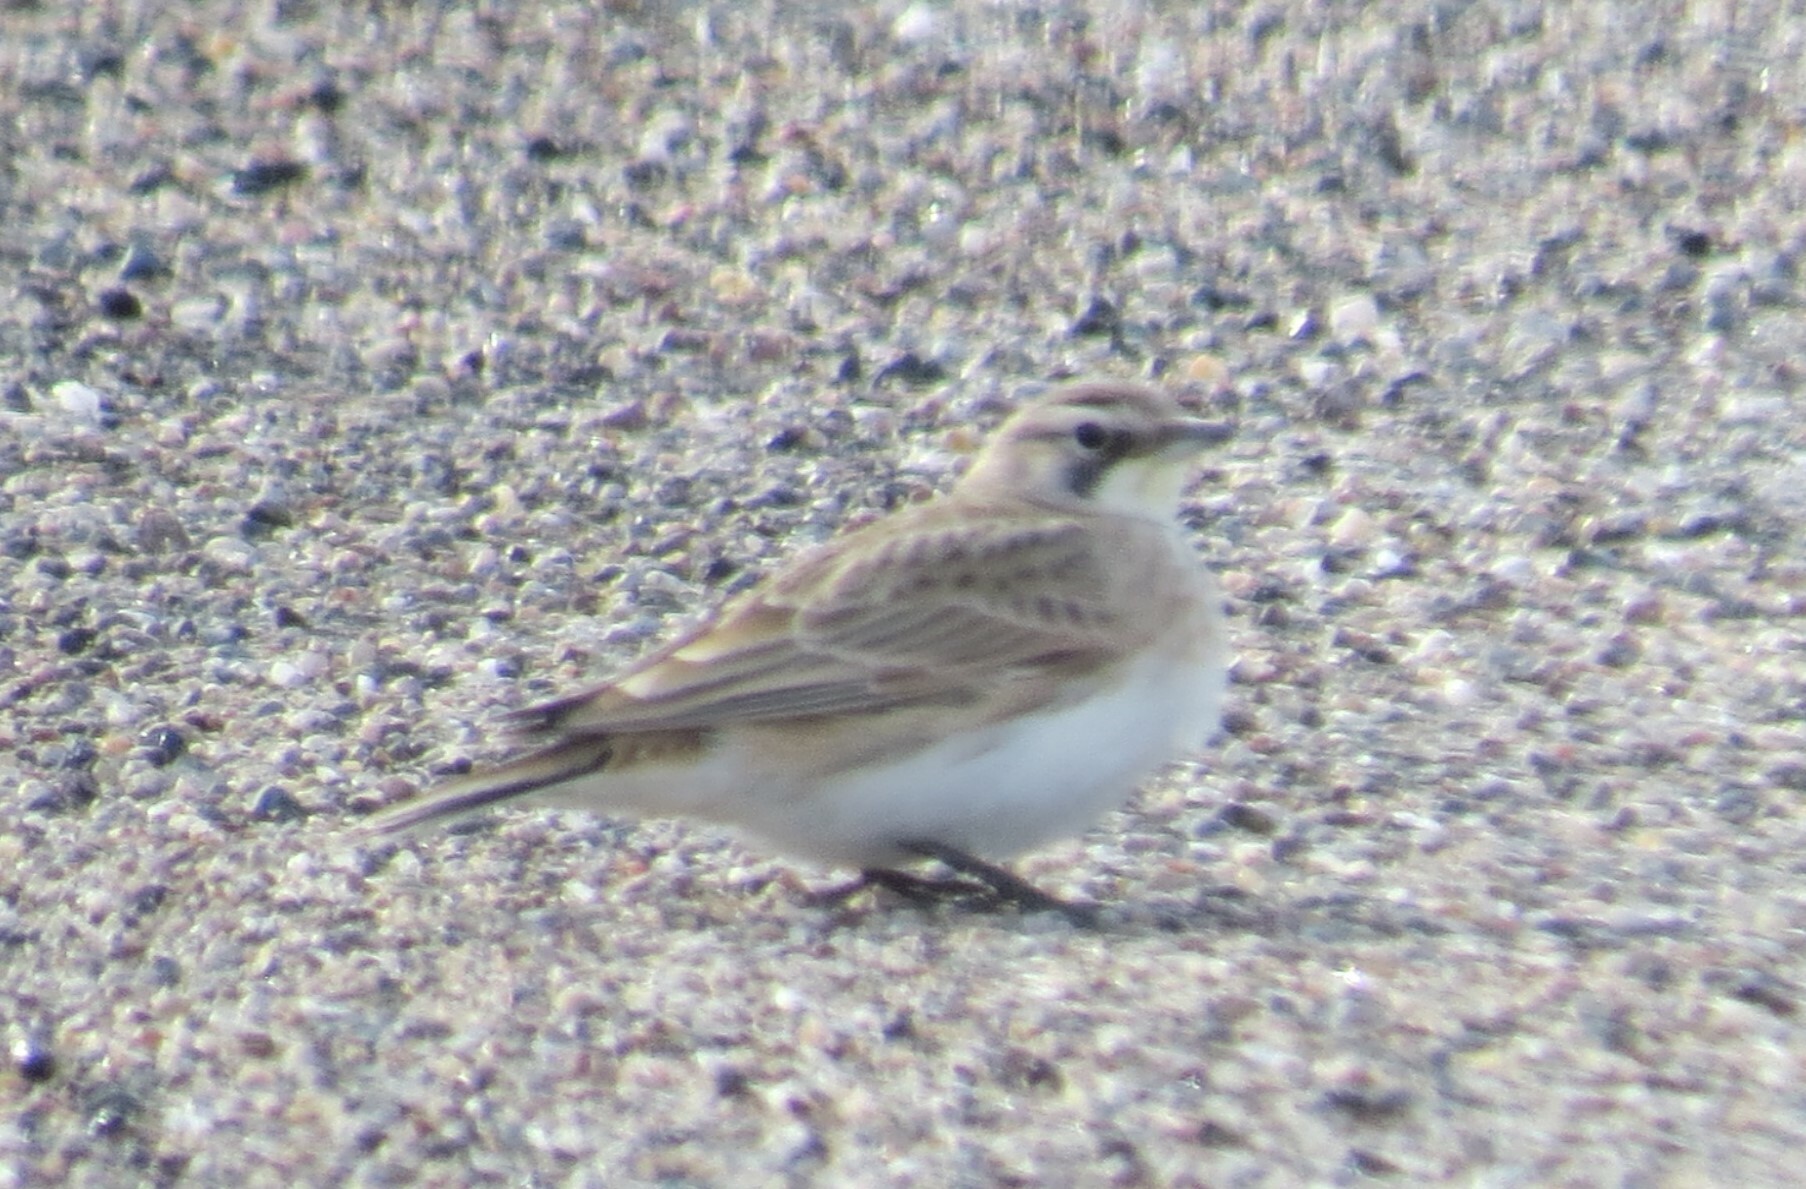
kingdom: Animalia
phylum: Chordata
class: Aves
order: Passeriformes
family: Alaudidae
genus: Eremophila
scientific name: Eremophila alpestris
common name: Horned lark
